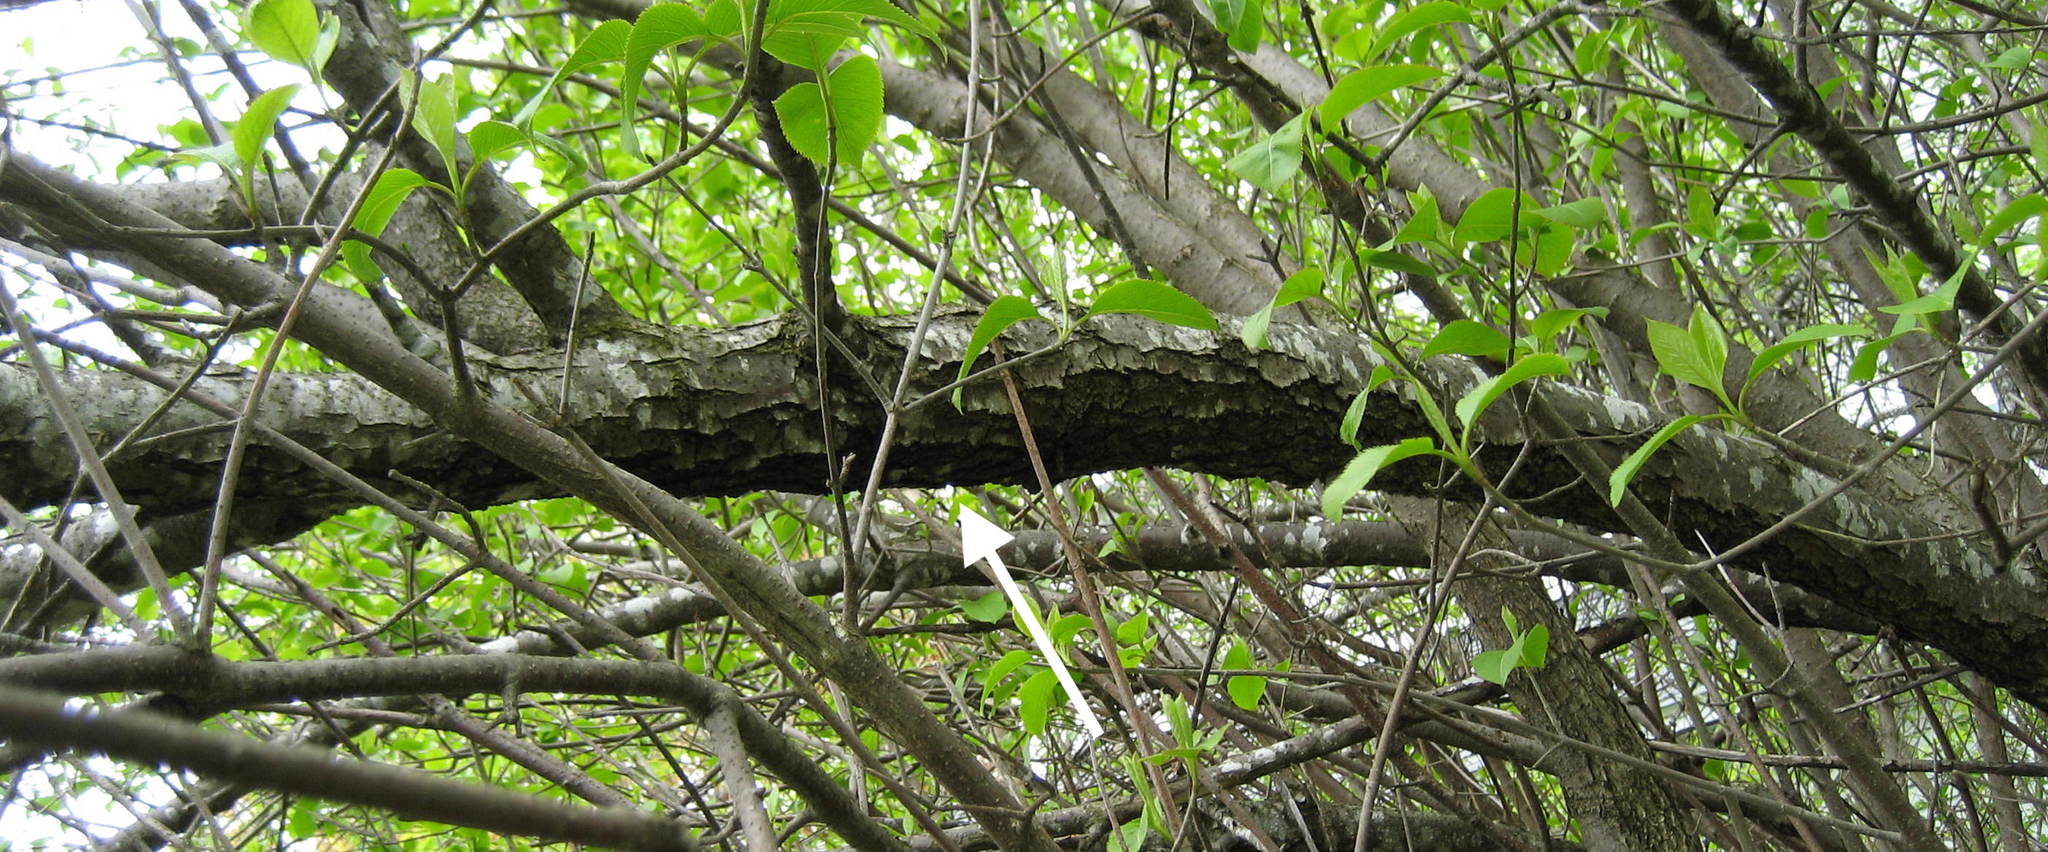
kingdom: Plantae
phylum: Tracheophyta
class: Magnoliopsida
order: Dipsacales
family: Viburnaceae
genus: Viburnum
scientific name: Viburnum lentago
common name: Black haw
